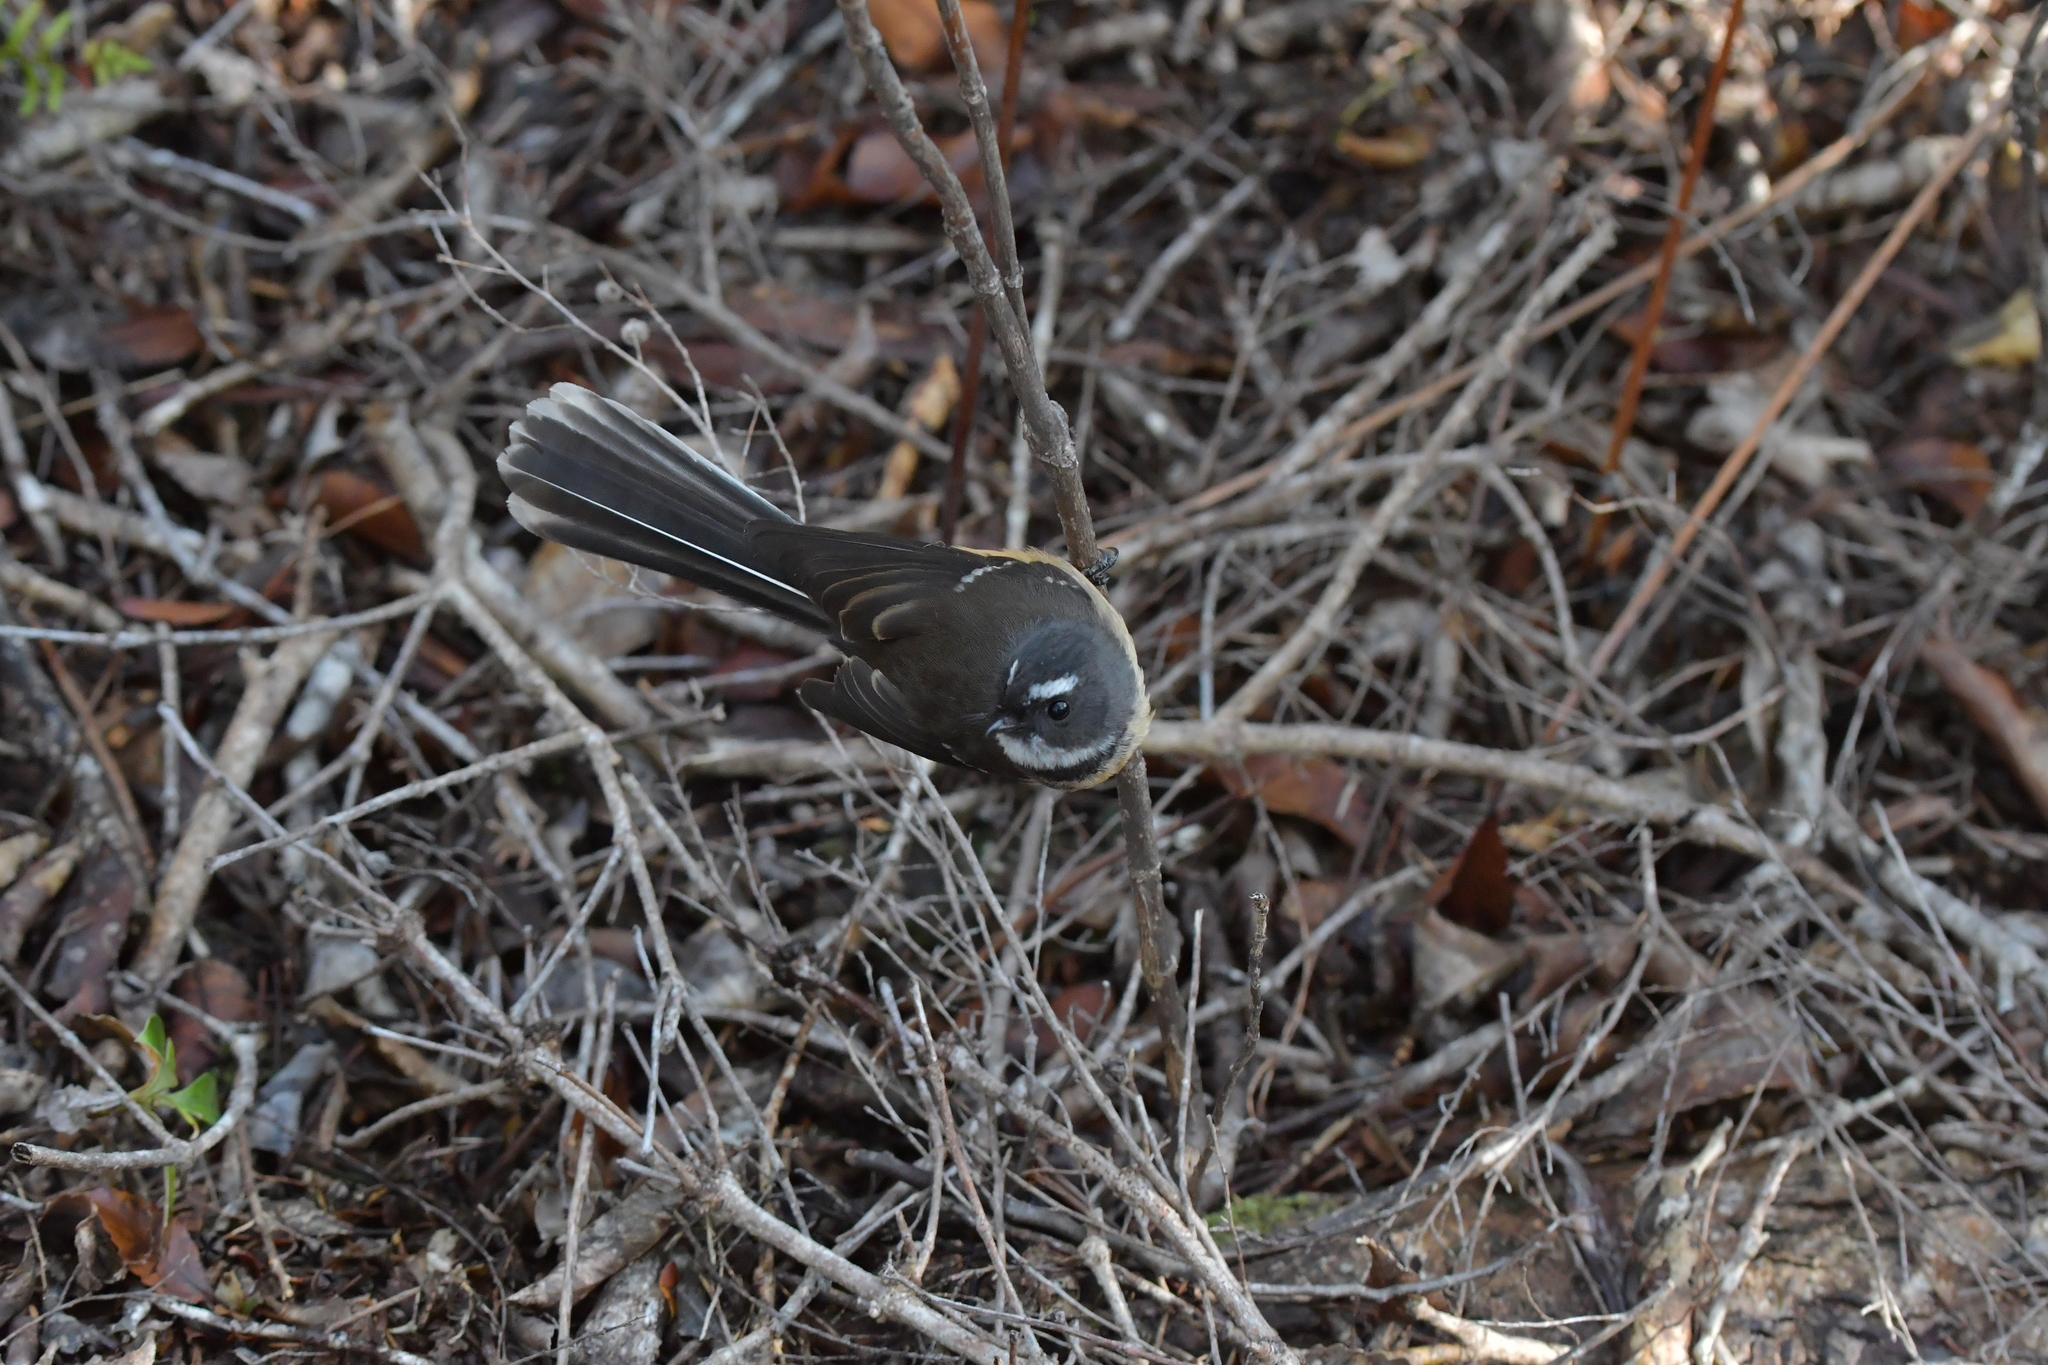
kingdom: Animalia
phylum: Chordata
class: Aves
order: Passeriformes
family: Rhipiduridae
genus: Rhipidura
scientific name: Rhipidura fuliginosa
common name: New zealand fantail
